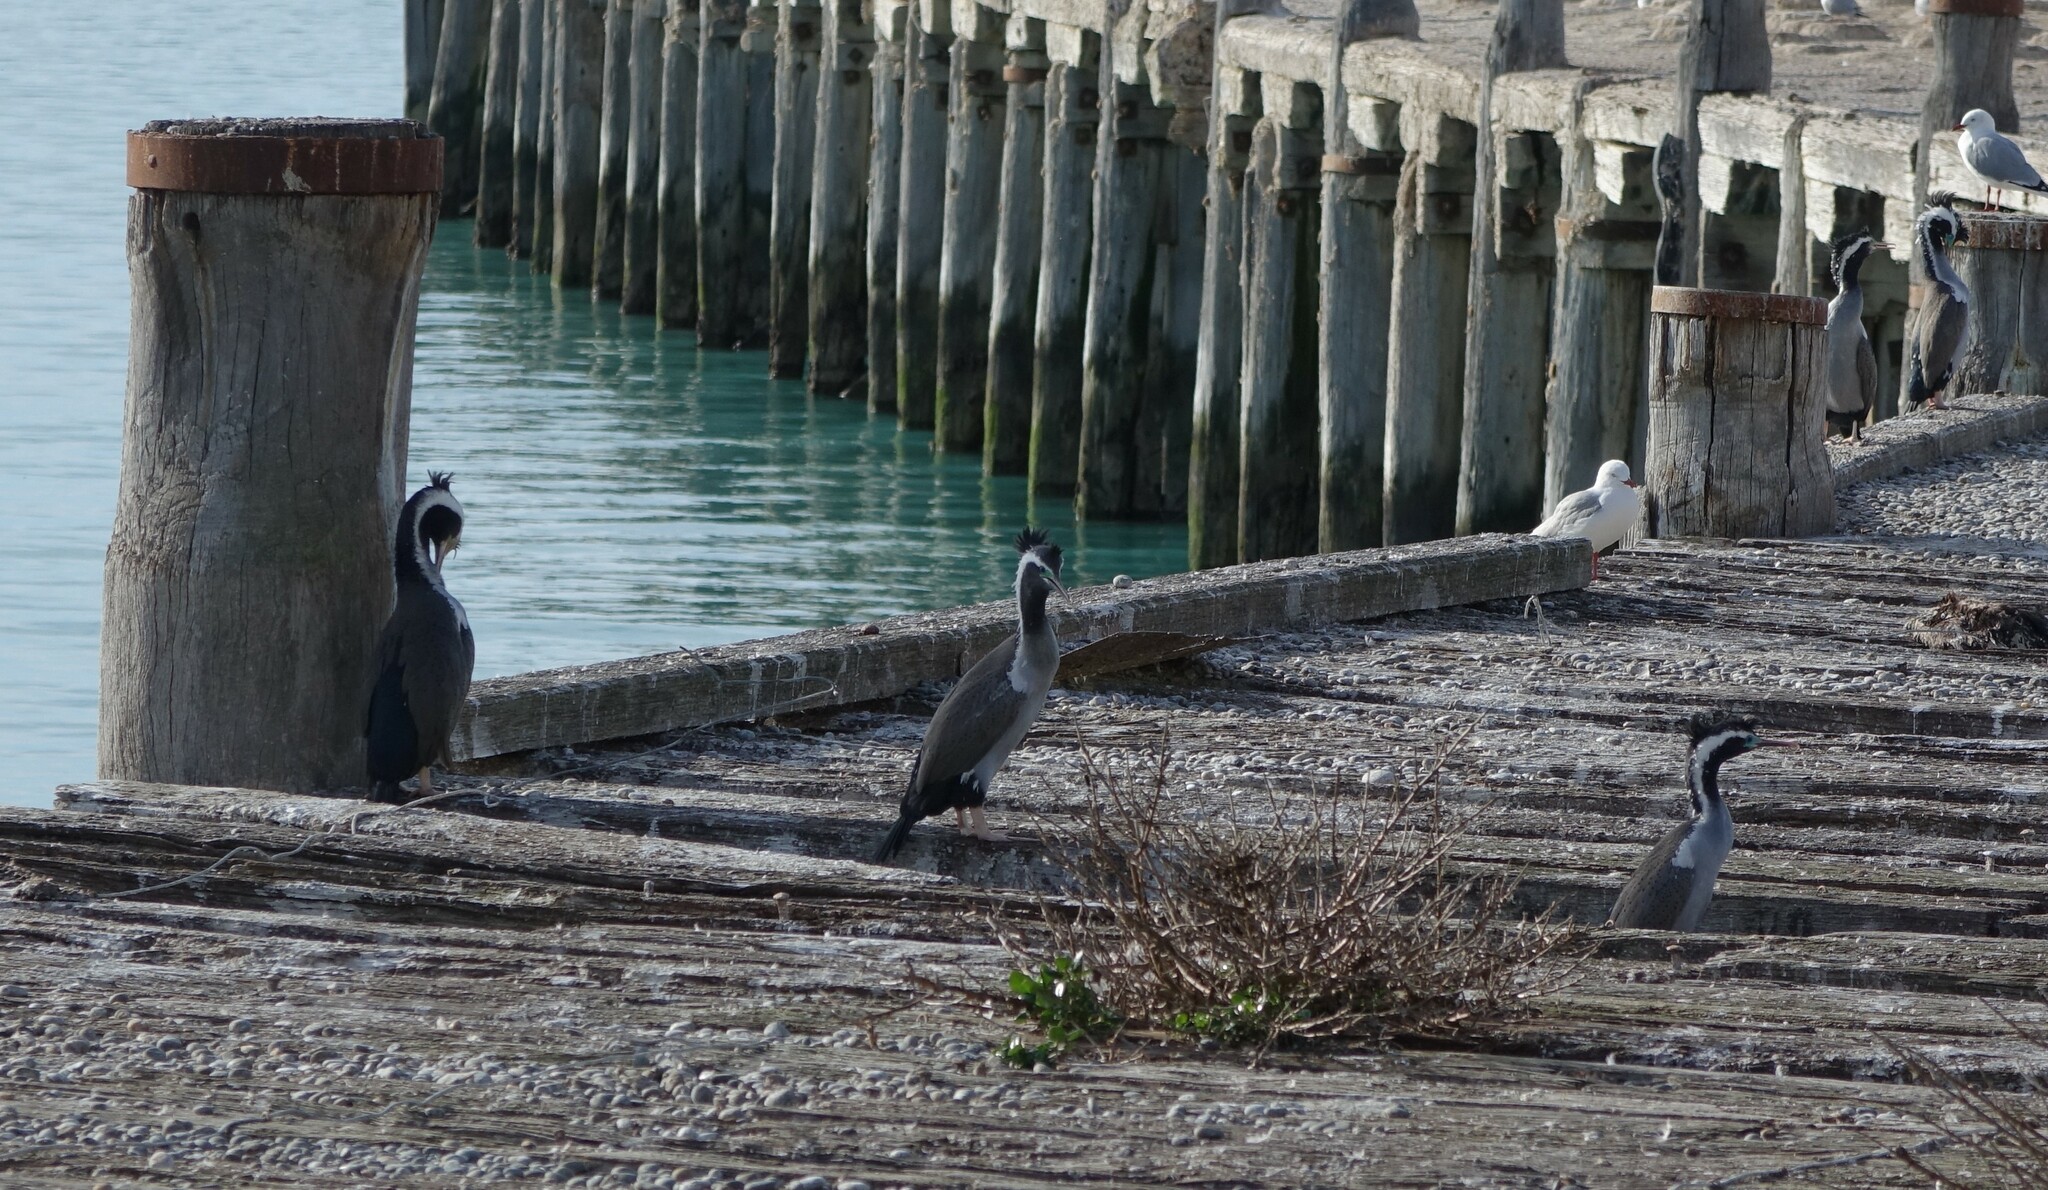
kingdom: Animalia
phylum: Chordata
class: Aves
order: Suliformes
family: Phalacrocoracidae
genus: Phalacrocorax
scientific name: Phalacrocorax punctatus
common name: Spotted shag
